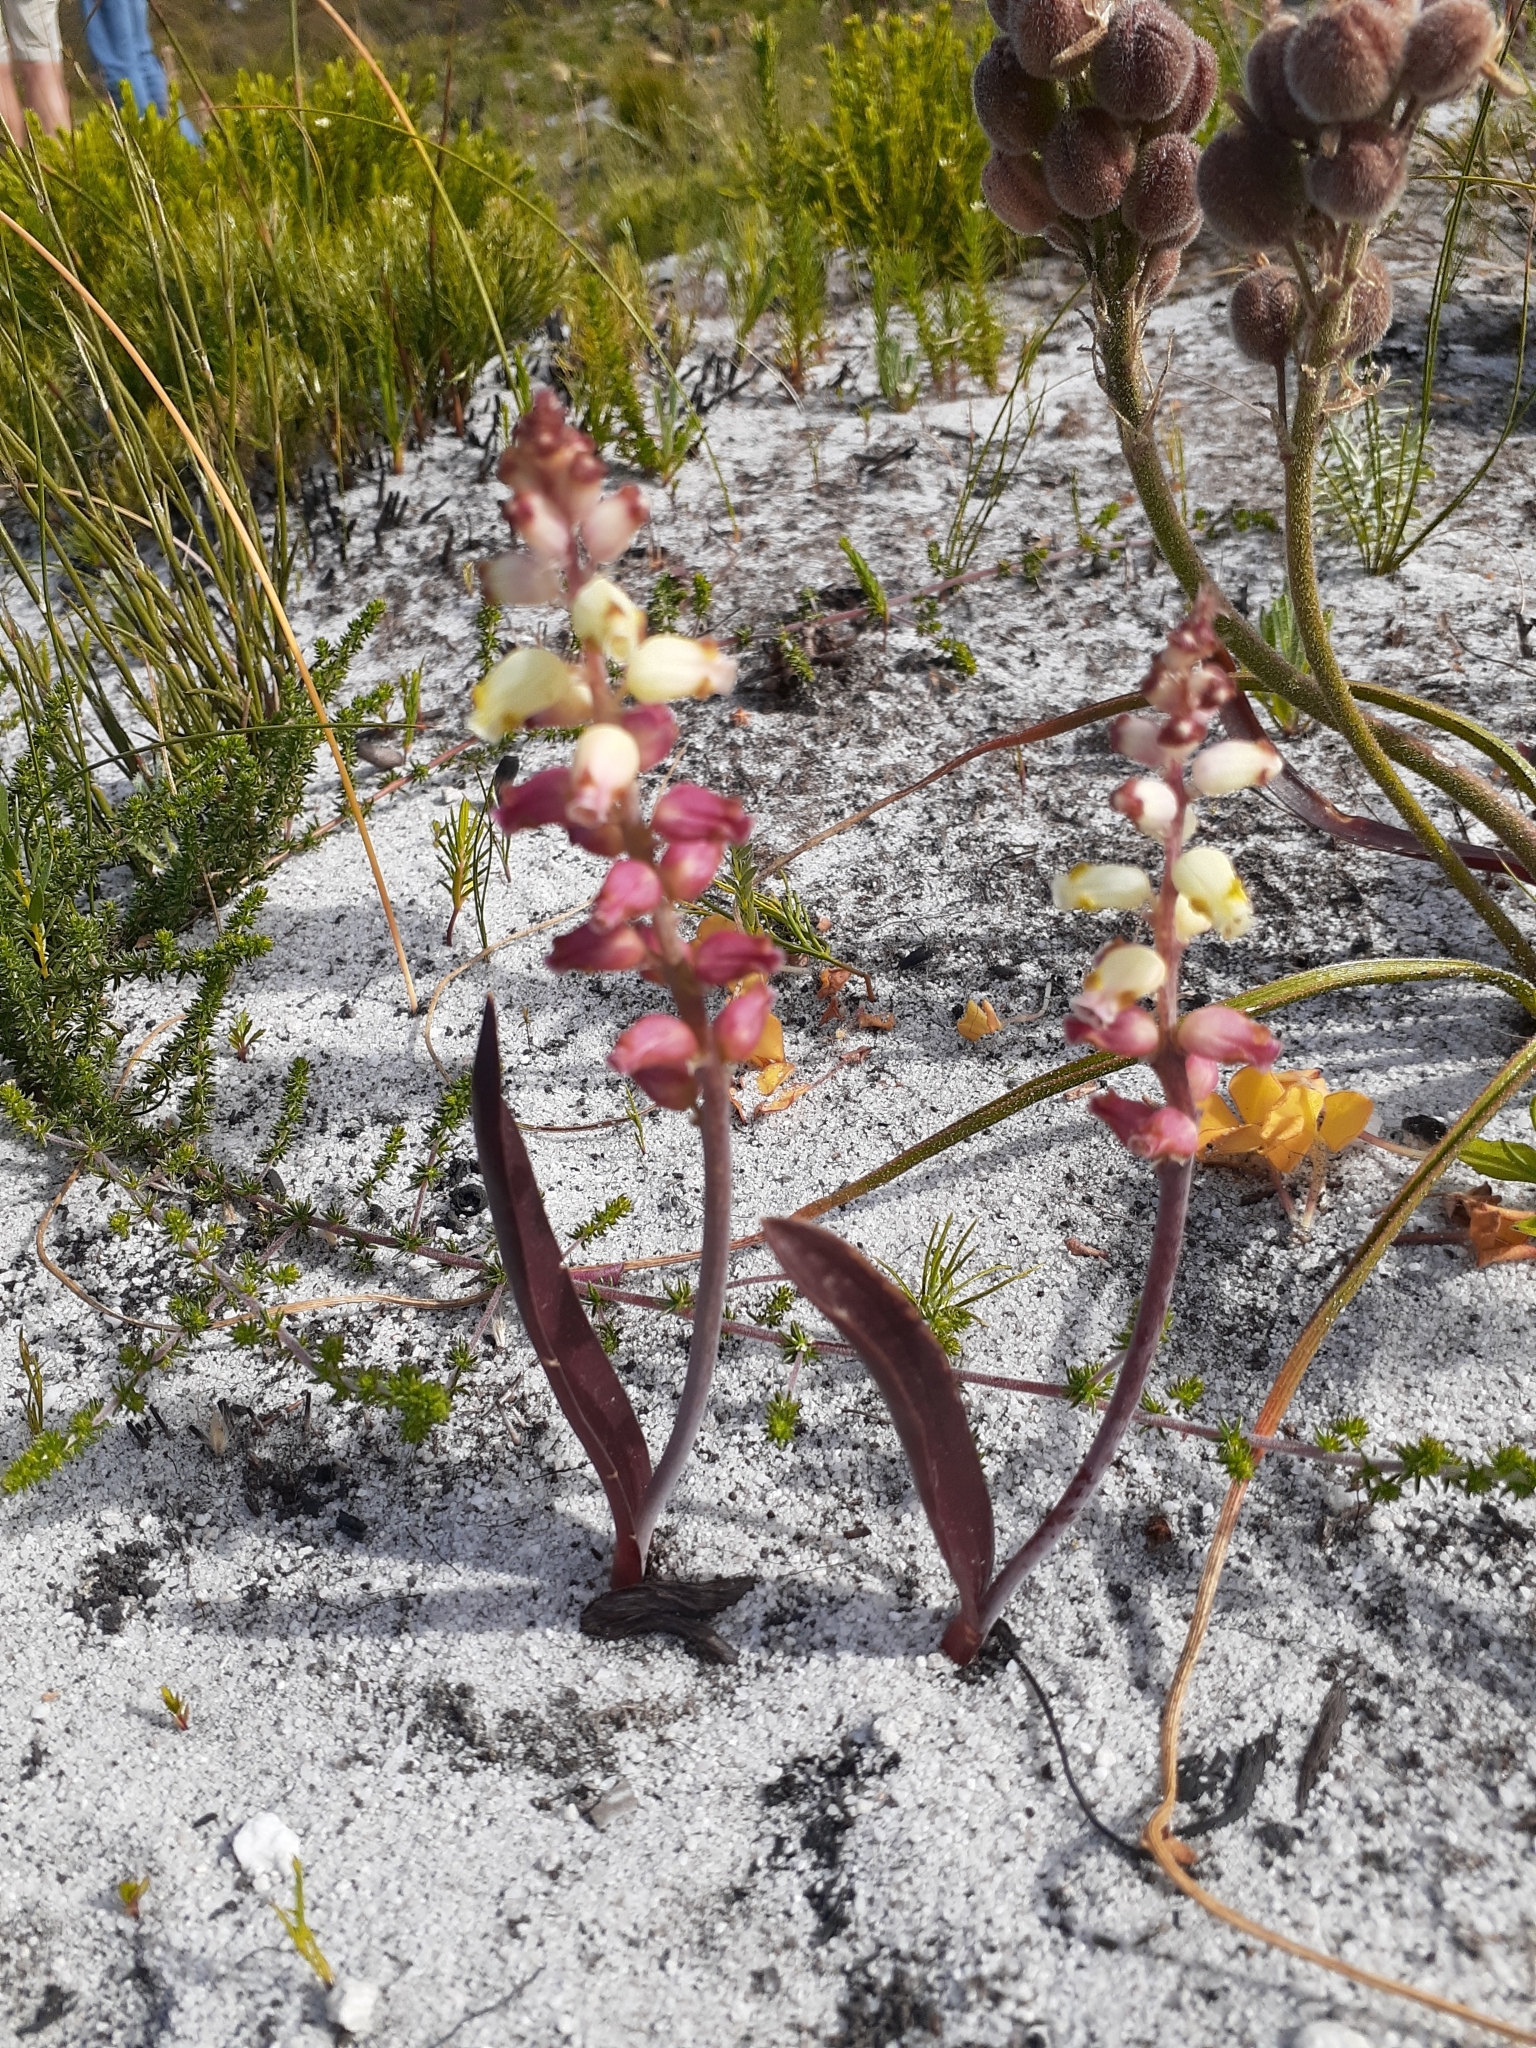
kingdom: Plantae
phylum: Tracheophyta
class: Liliopsida
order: Asparagales
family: Asparagaceae
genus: Lachenalia
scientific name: Lachenalia peersii
